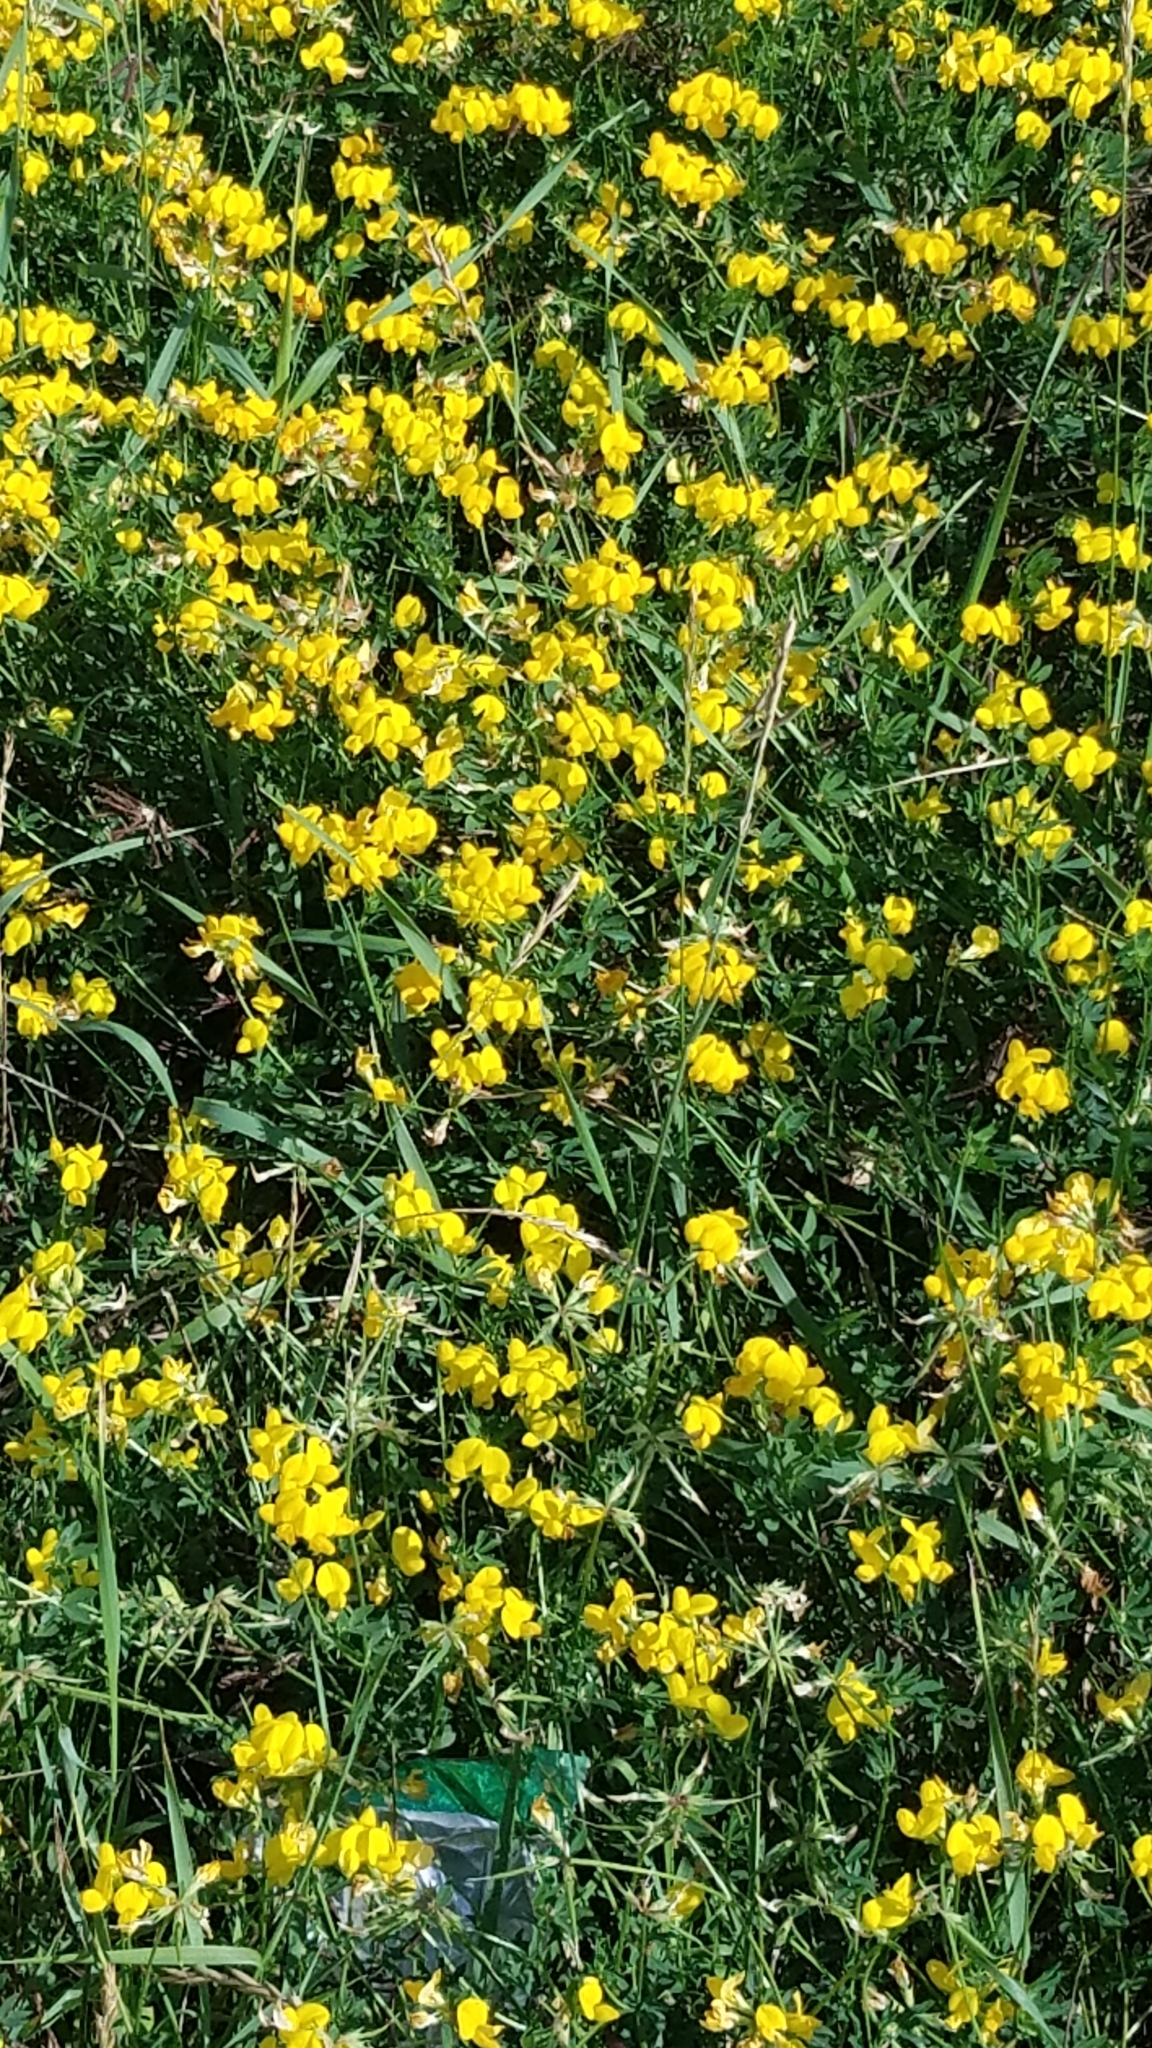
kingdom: Plantae
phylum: Tracheophyta
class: Magnoliopsida
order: Fabales
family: Fabaceae
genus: Lotus
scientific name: Lotus corniculatus
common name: Common bird's-foot-trefoil
